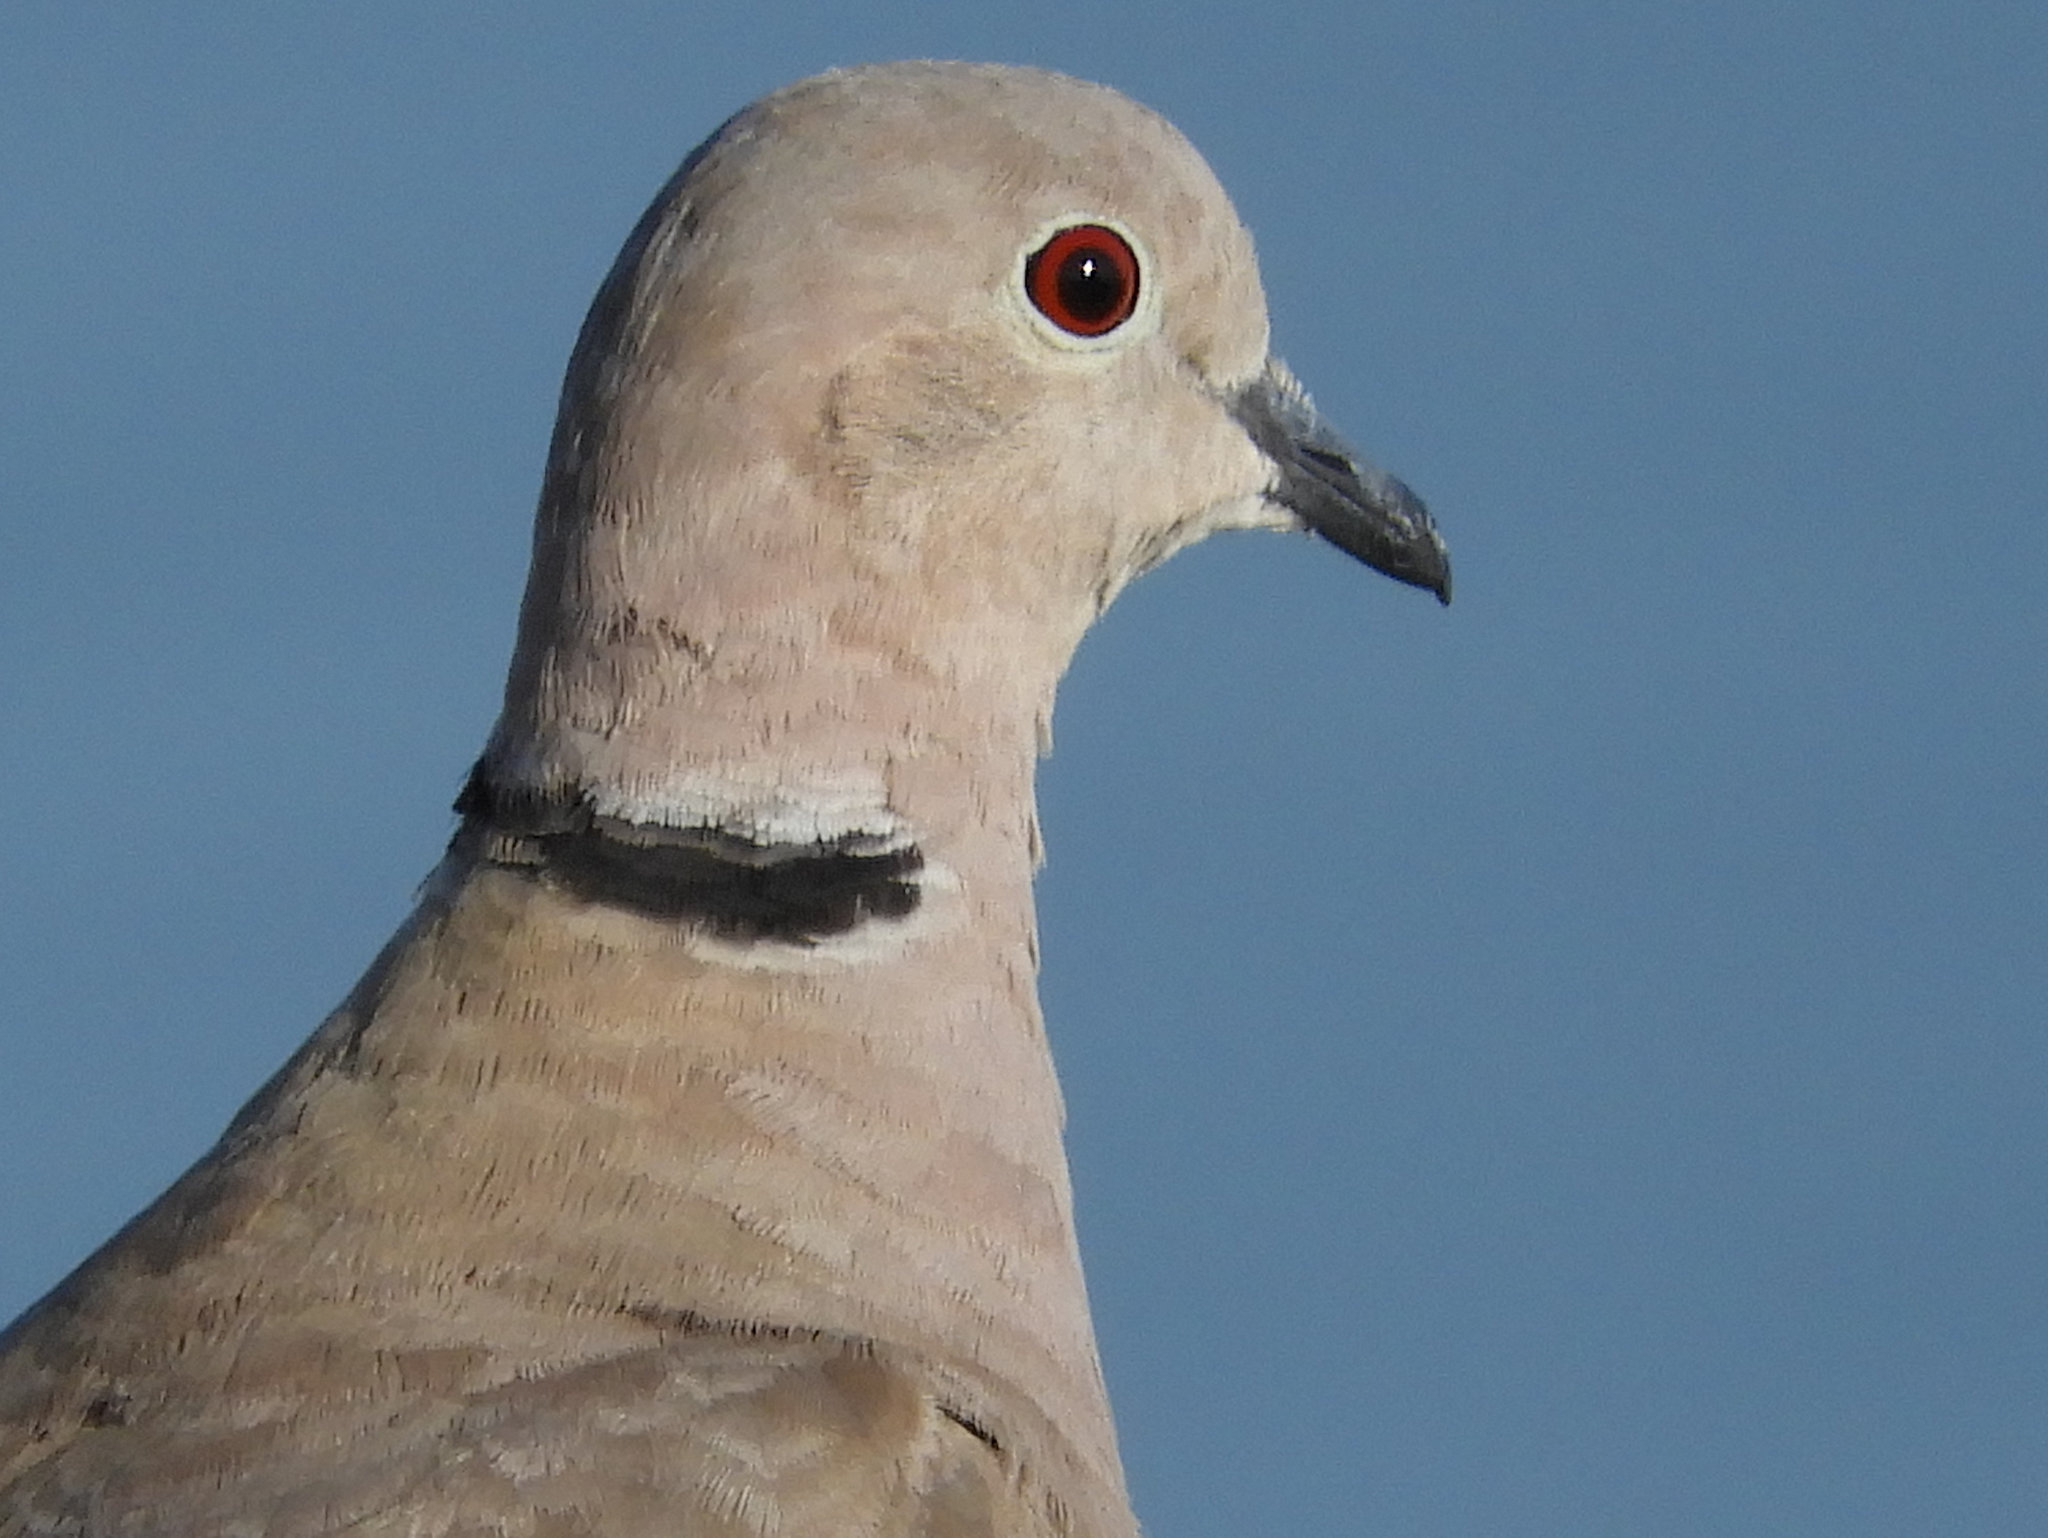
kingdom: Animalia
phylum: Chordata
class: Aves
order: Columbiformes
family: Columbidae
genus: Streptopelia
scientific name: Streptopelia decaocto
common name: Eurasian collared dove
